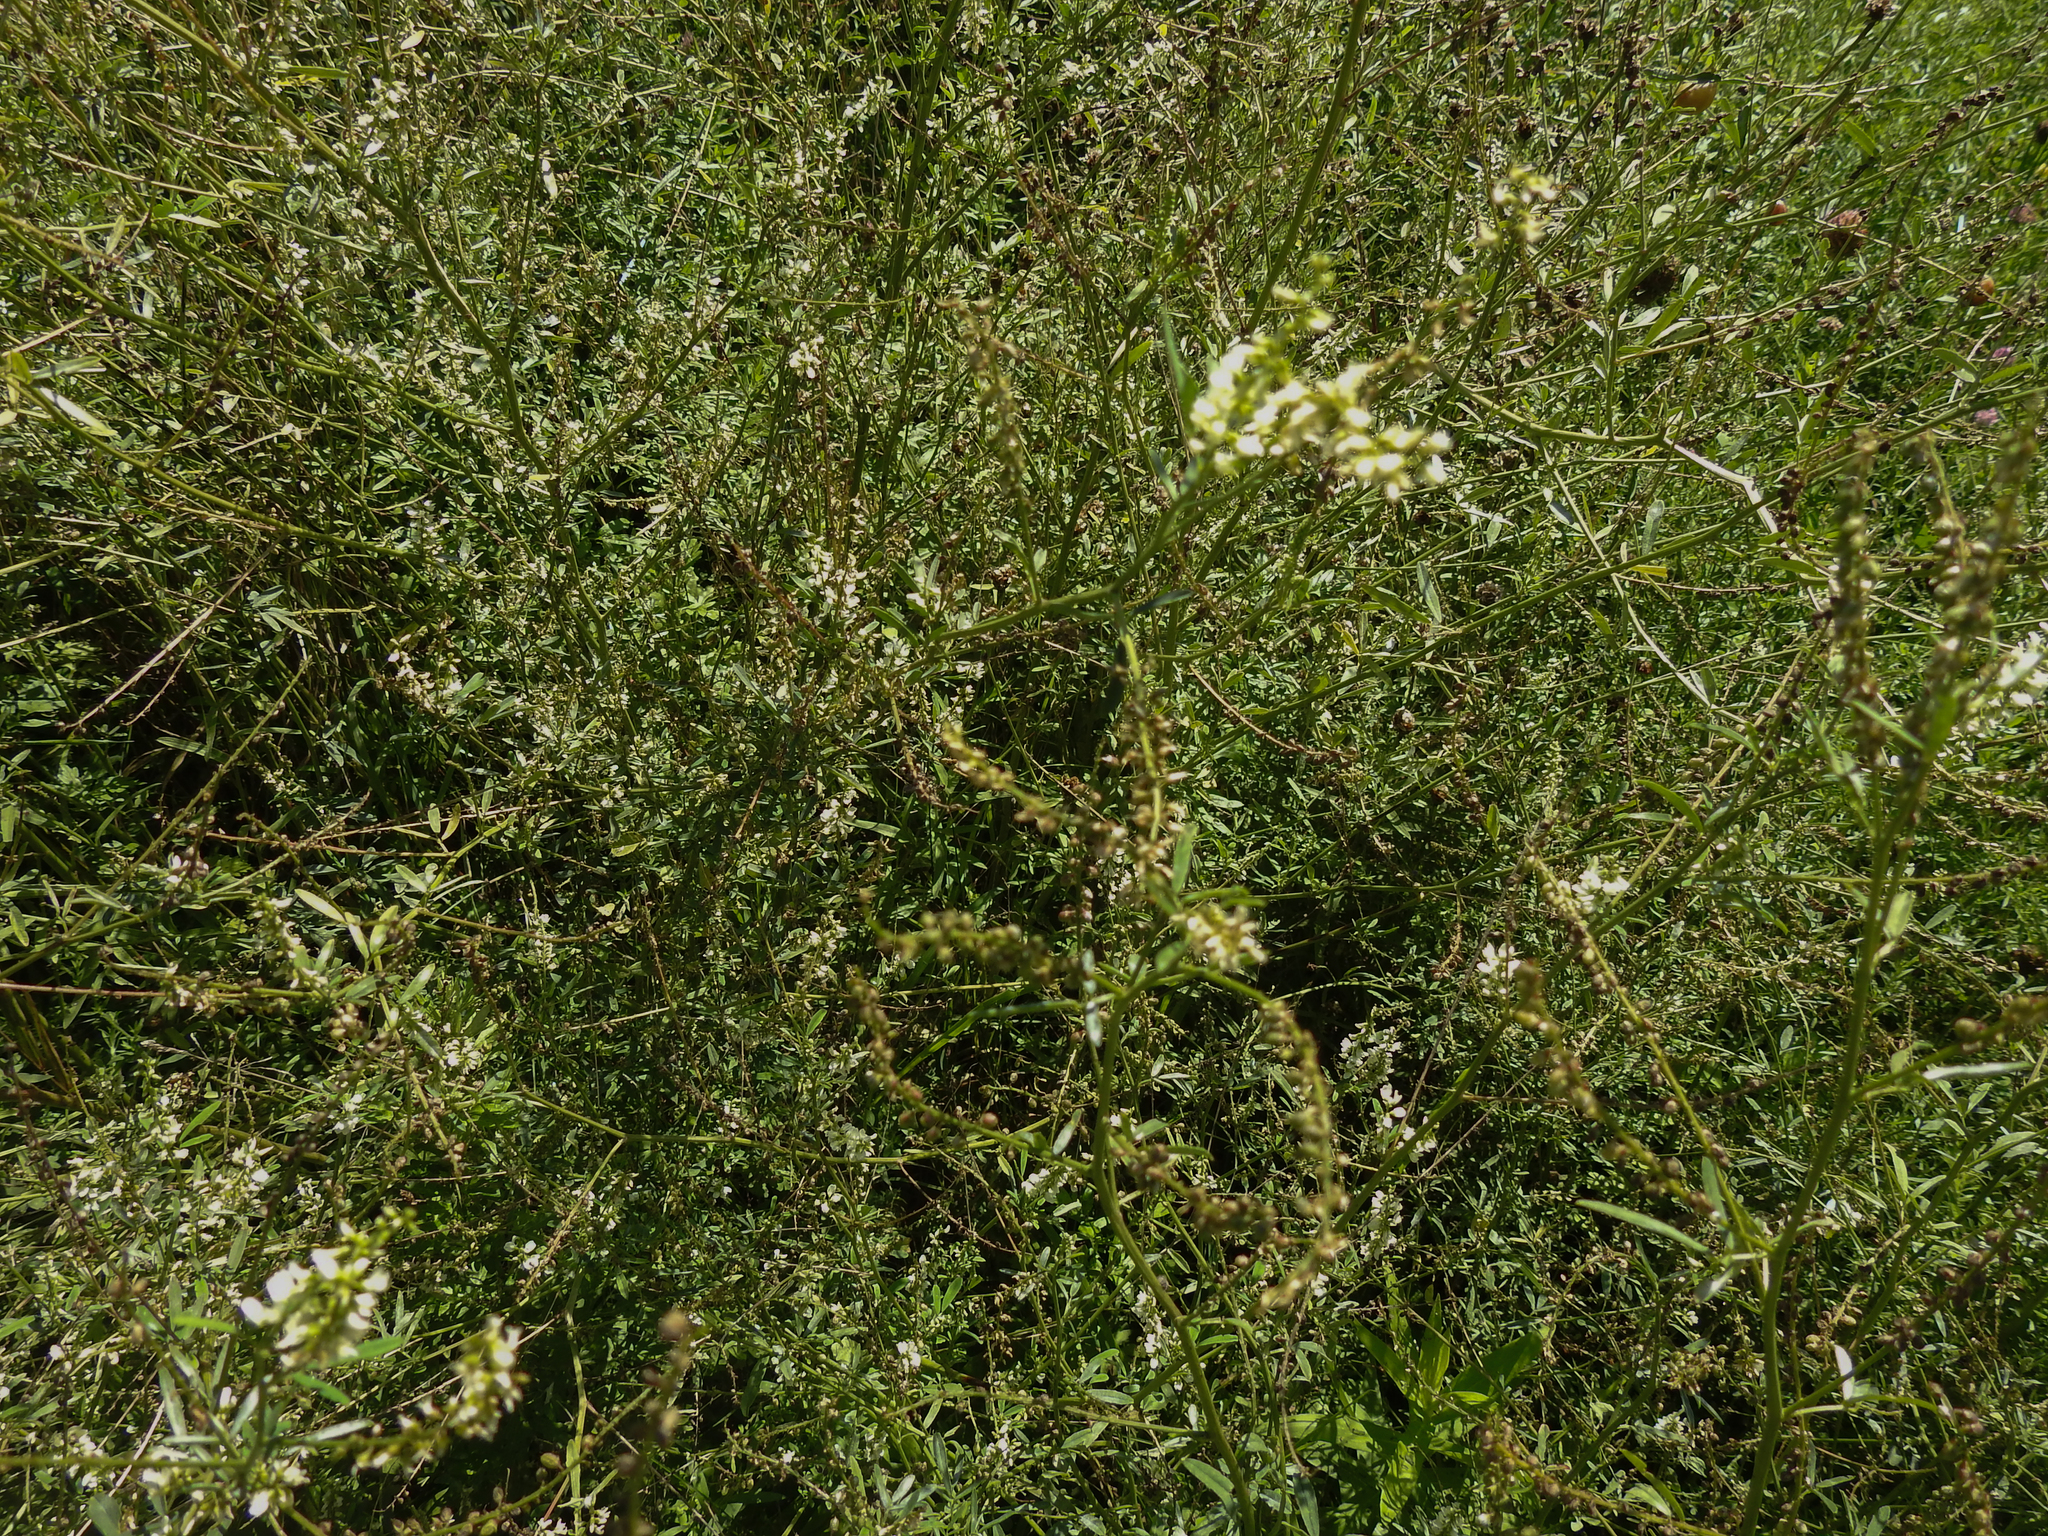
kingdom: Plantae
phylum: Tracheophyta
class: Magnoliopsida
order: Fabales
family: Fabaceae
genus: Melilotus
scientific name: Melilotus albus
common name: White melilot
